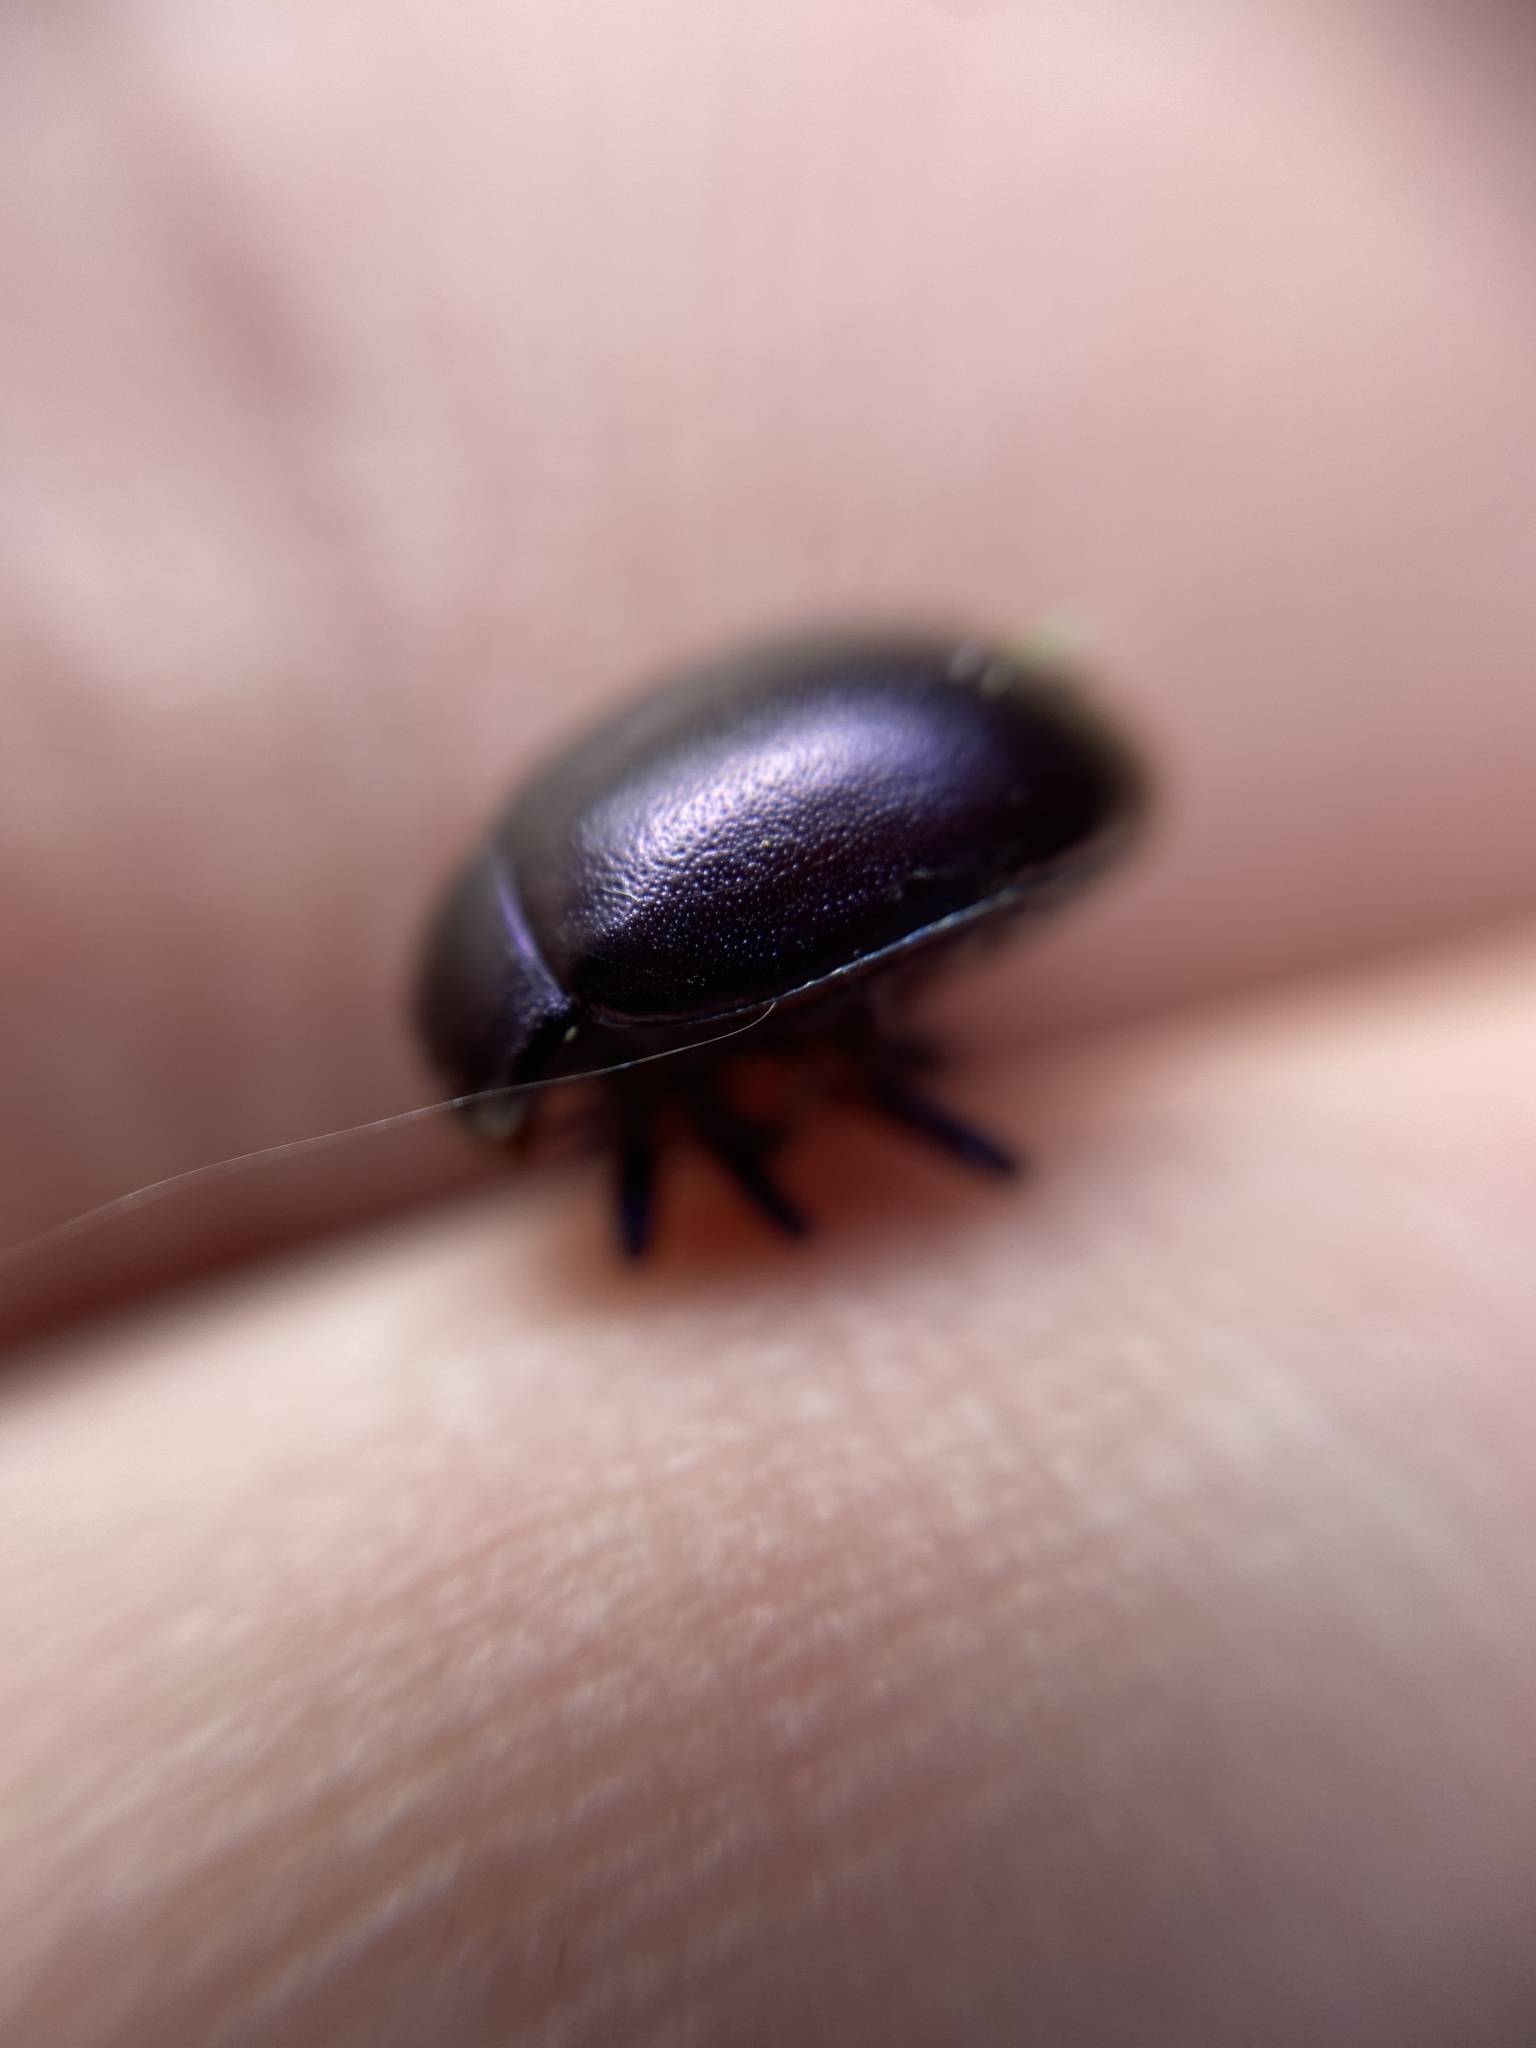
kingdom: Animalia
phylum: Arthropoda
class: Insecta
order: Coleoptera
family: Chrysomelidae
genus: Chrysolina
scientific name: Chrysolina sturmi
